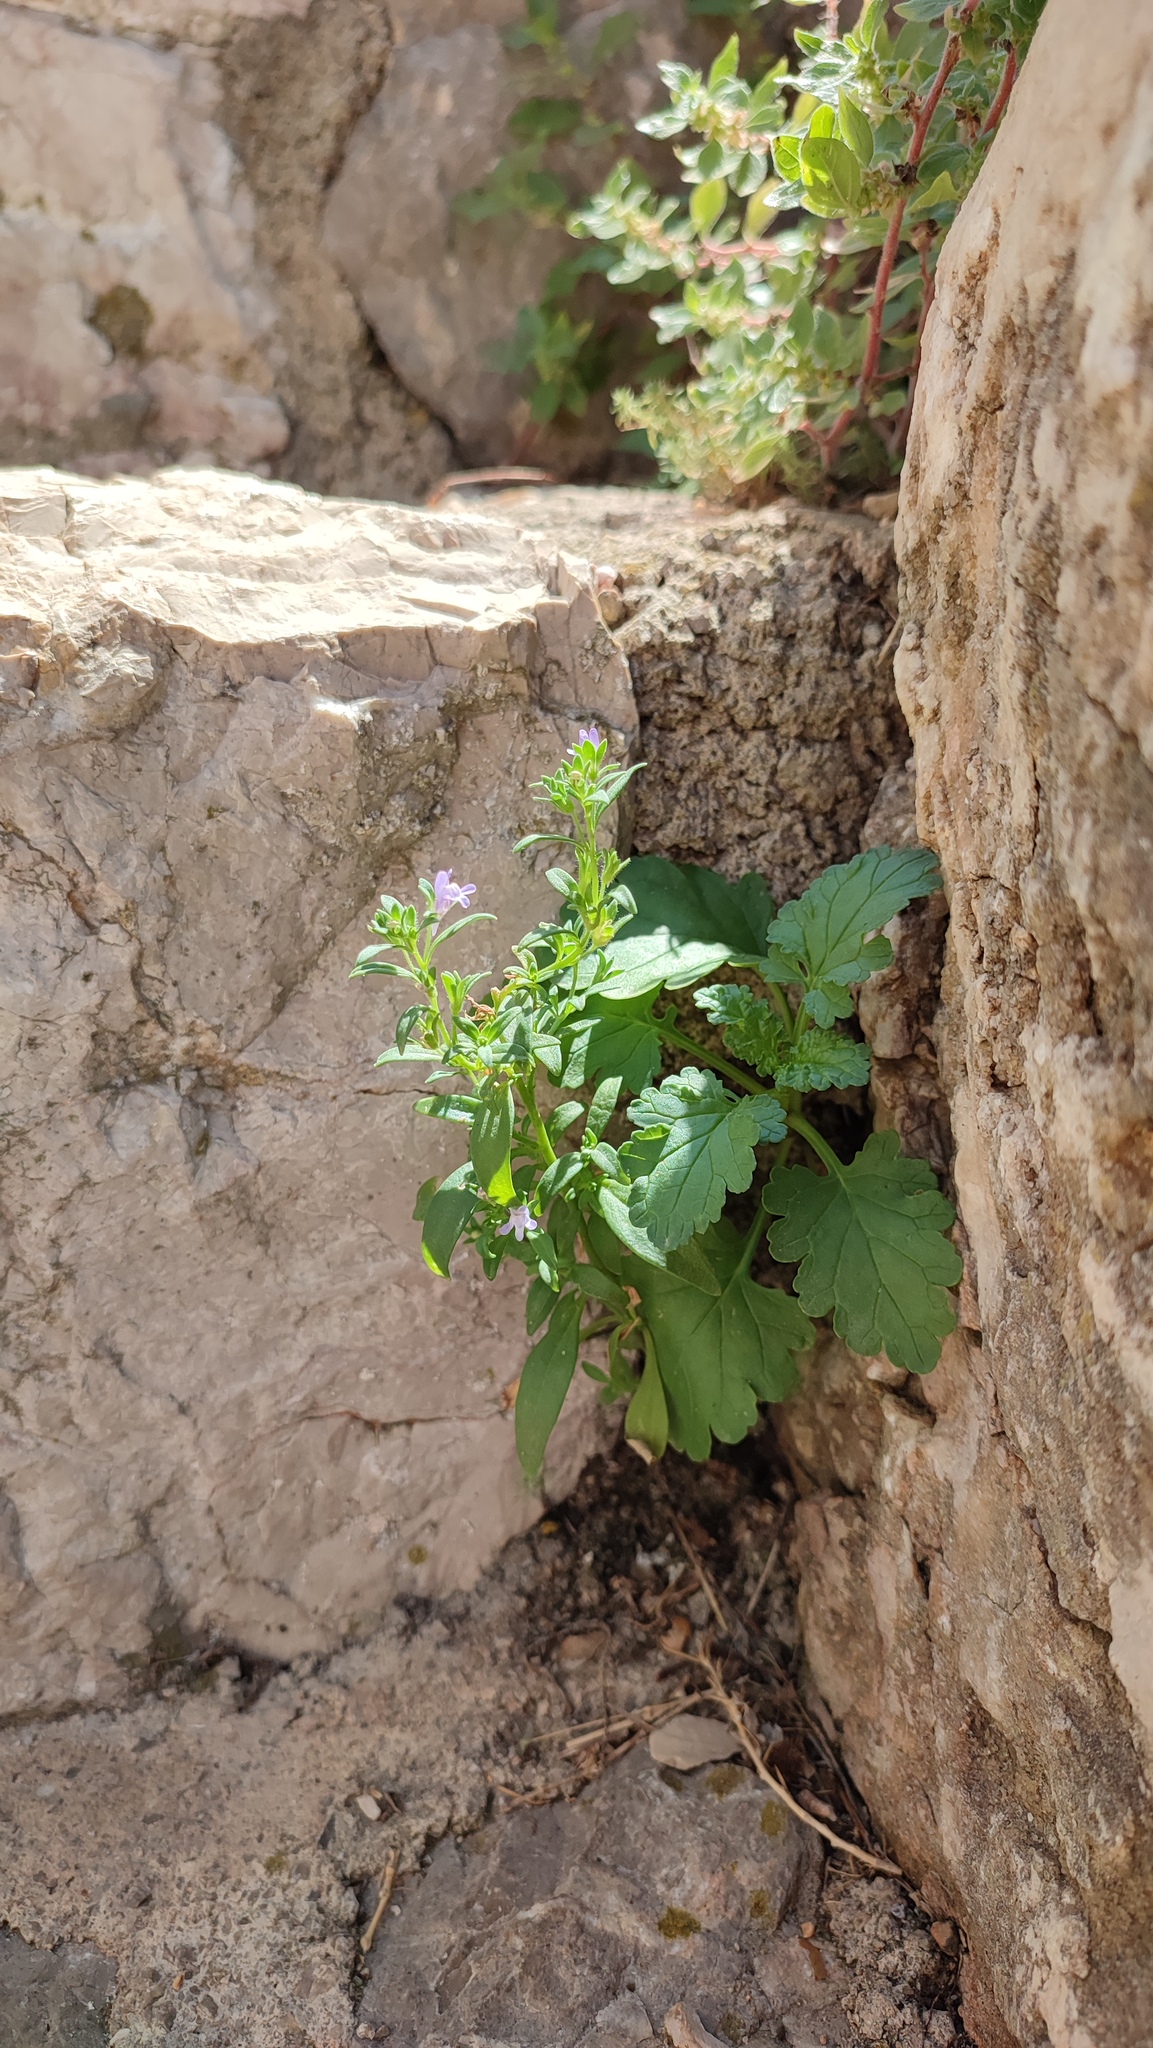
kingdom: Plantae
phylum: Tracheophyta
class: Magnoliopsida
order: Lamiales
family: Scrophulariaceae
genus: Scrophularia
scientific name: Scrophularia peregrina
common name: Mediterranean figwort
